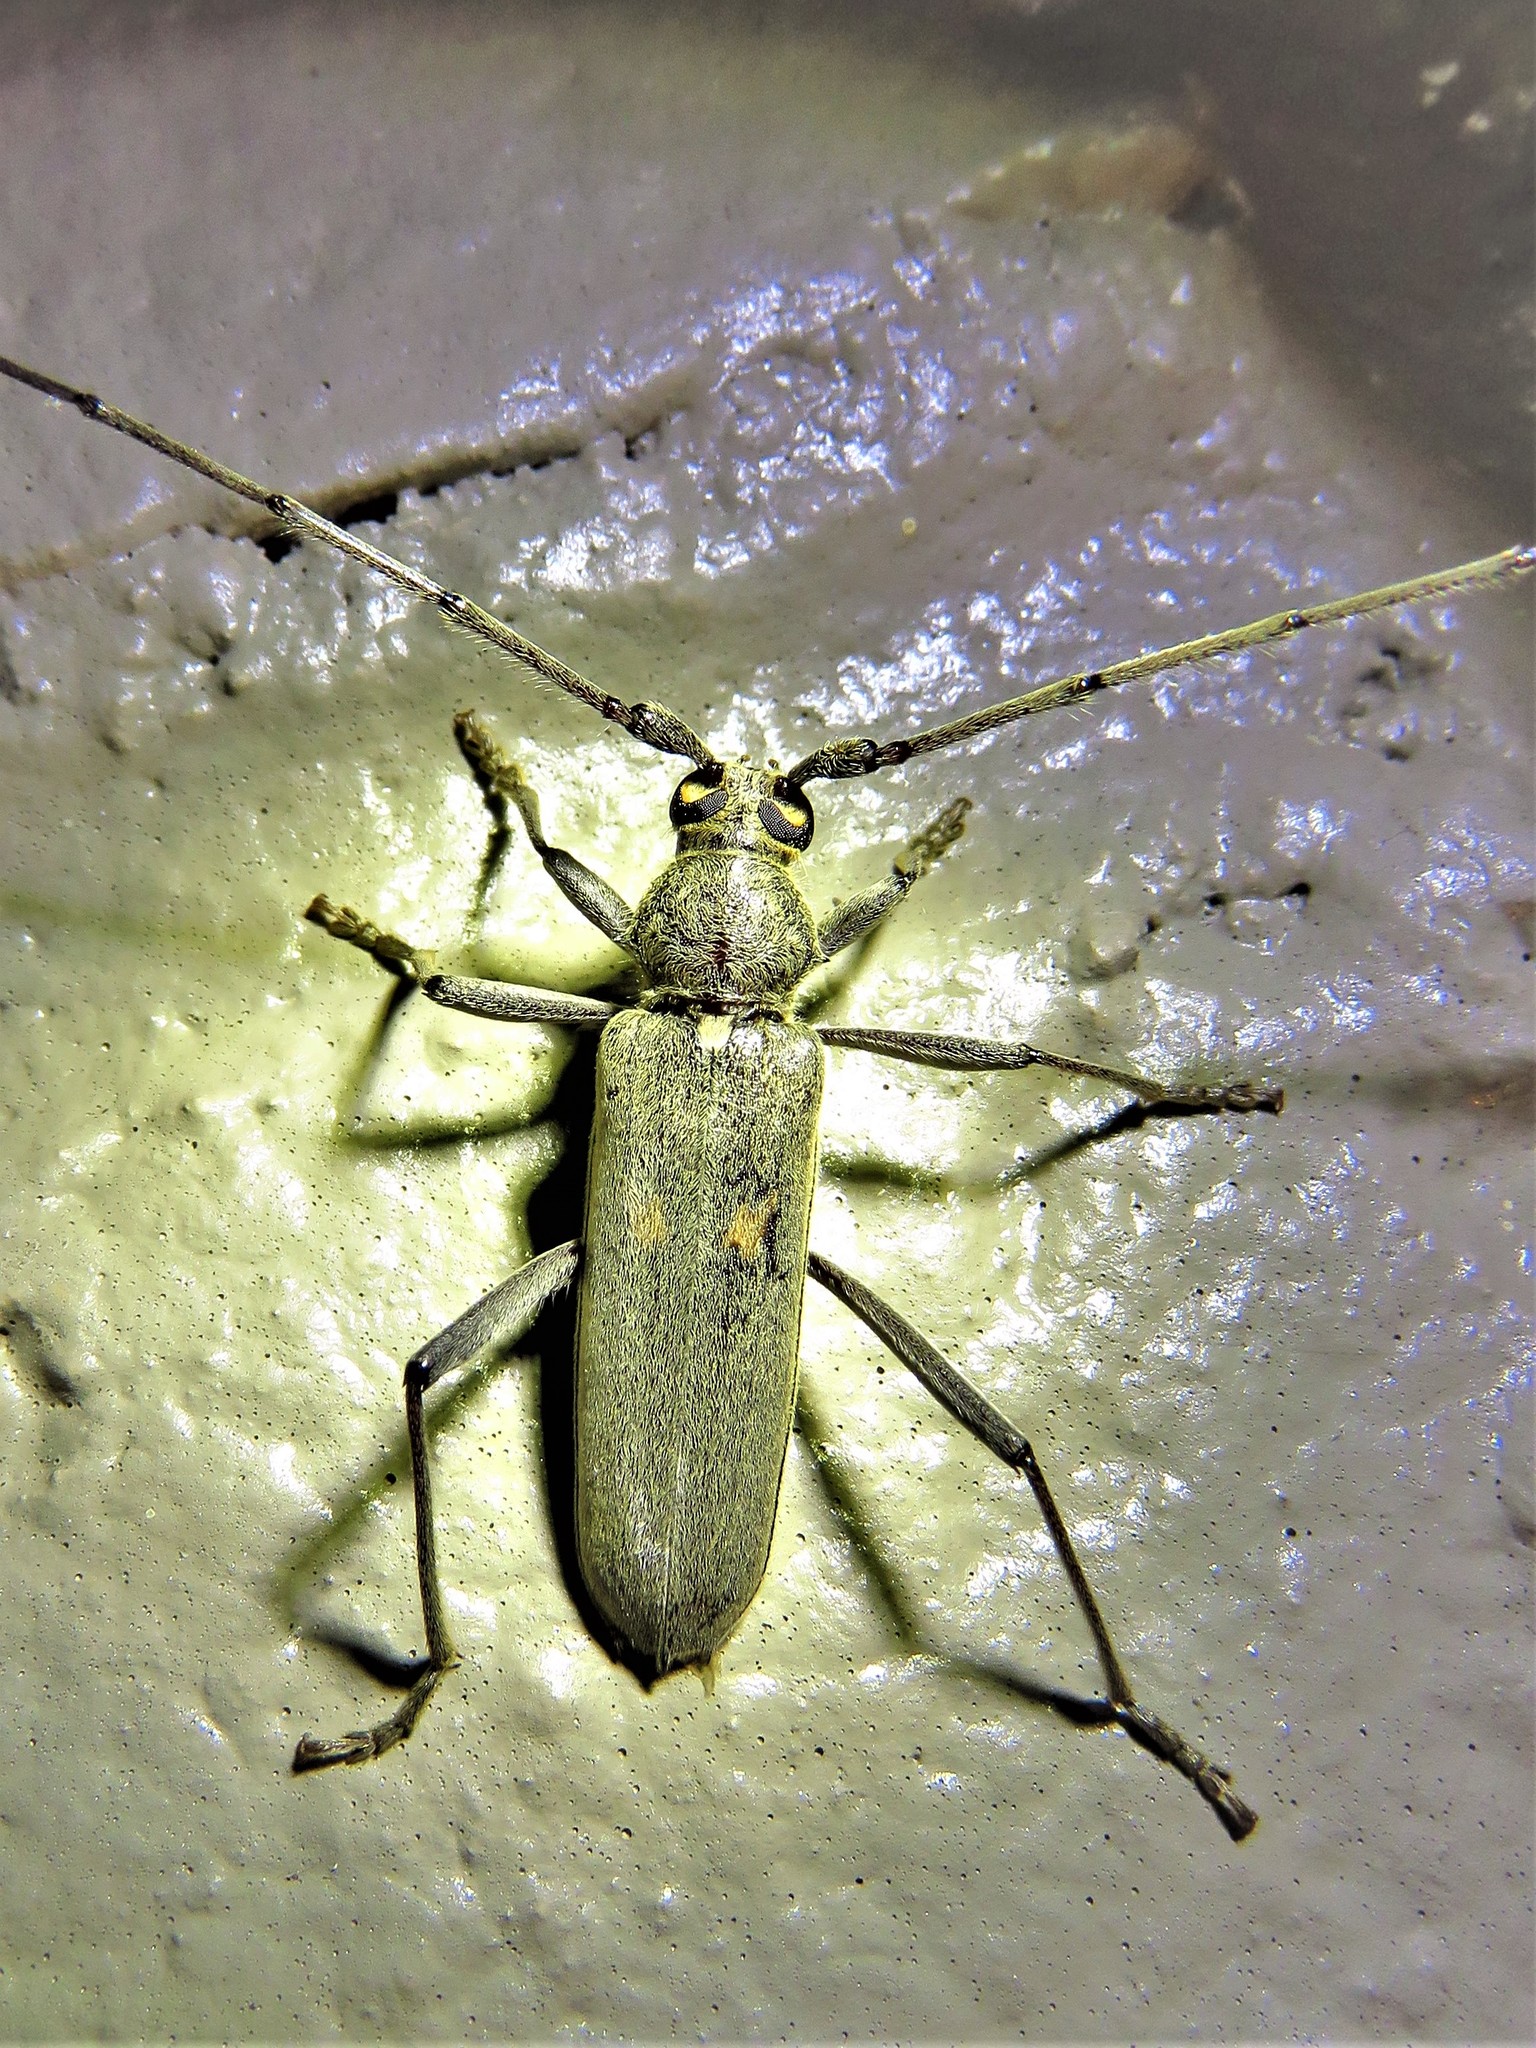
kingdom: Animalia
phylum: Arthropoda
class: Insecta
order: Coleoptera
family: Cerambycidae
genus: Knulliana
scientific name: Knulliana cincta
